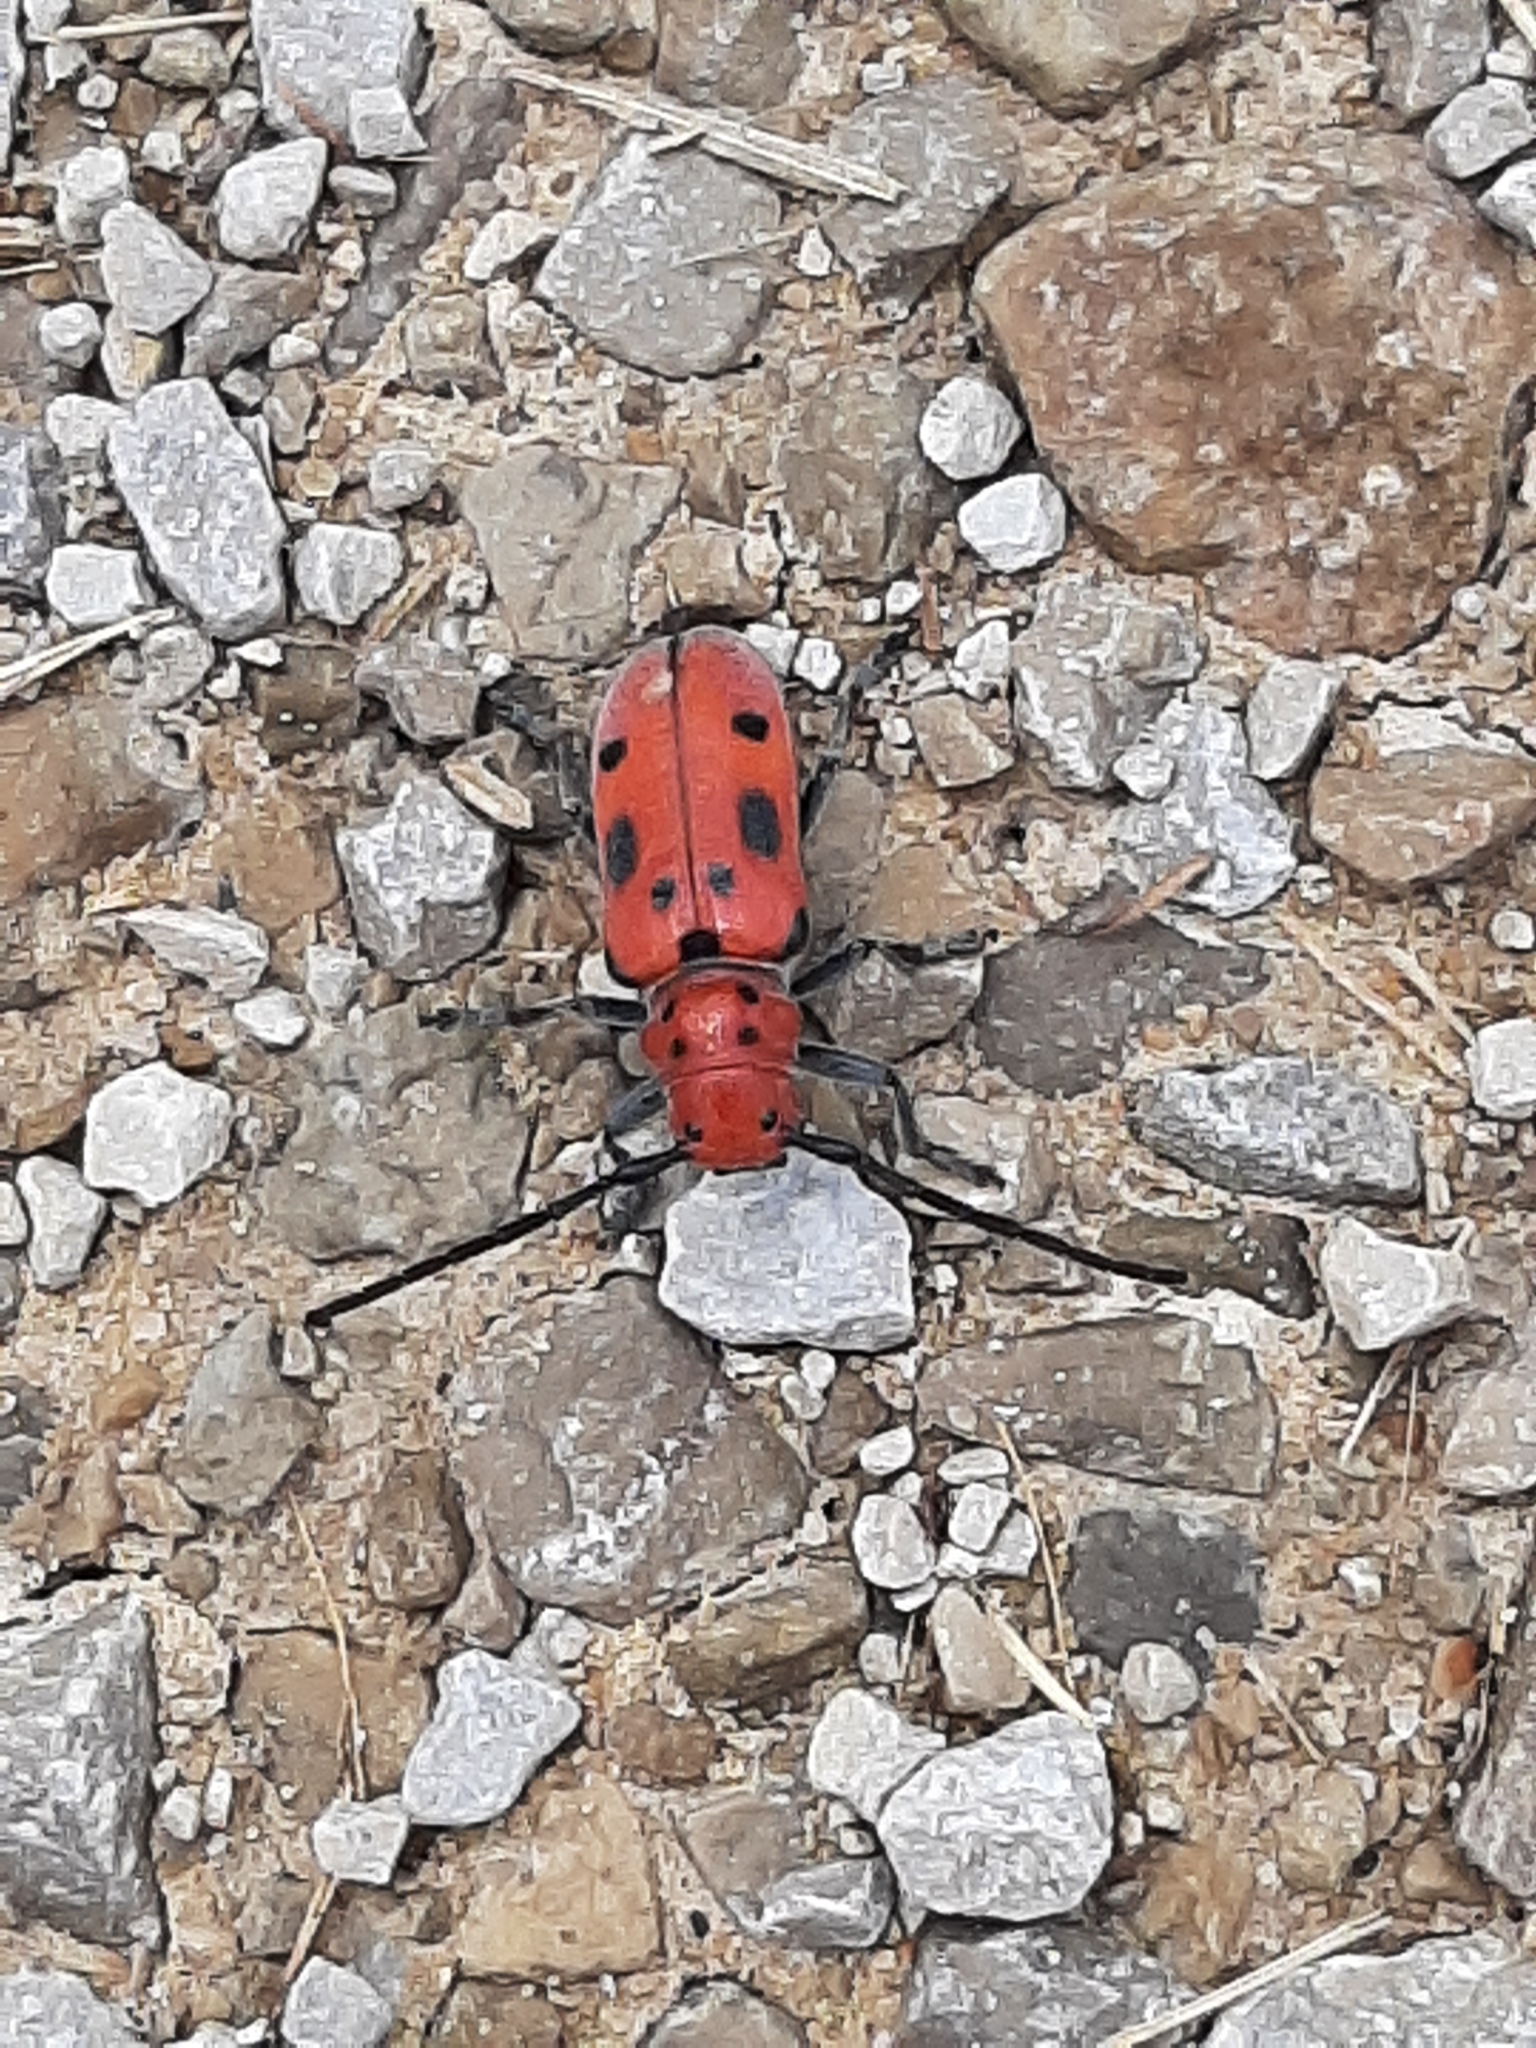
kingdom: Animalia
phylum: Arthropoda
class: Insecta
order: Coleoptera
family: Cerambycidae
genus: Tetraopes
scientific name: Tetraopes tetrophthalmus
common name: Red milkweed beetle
